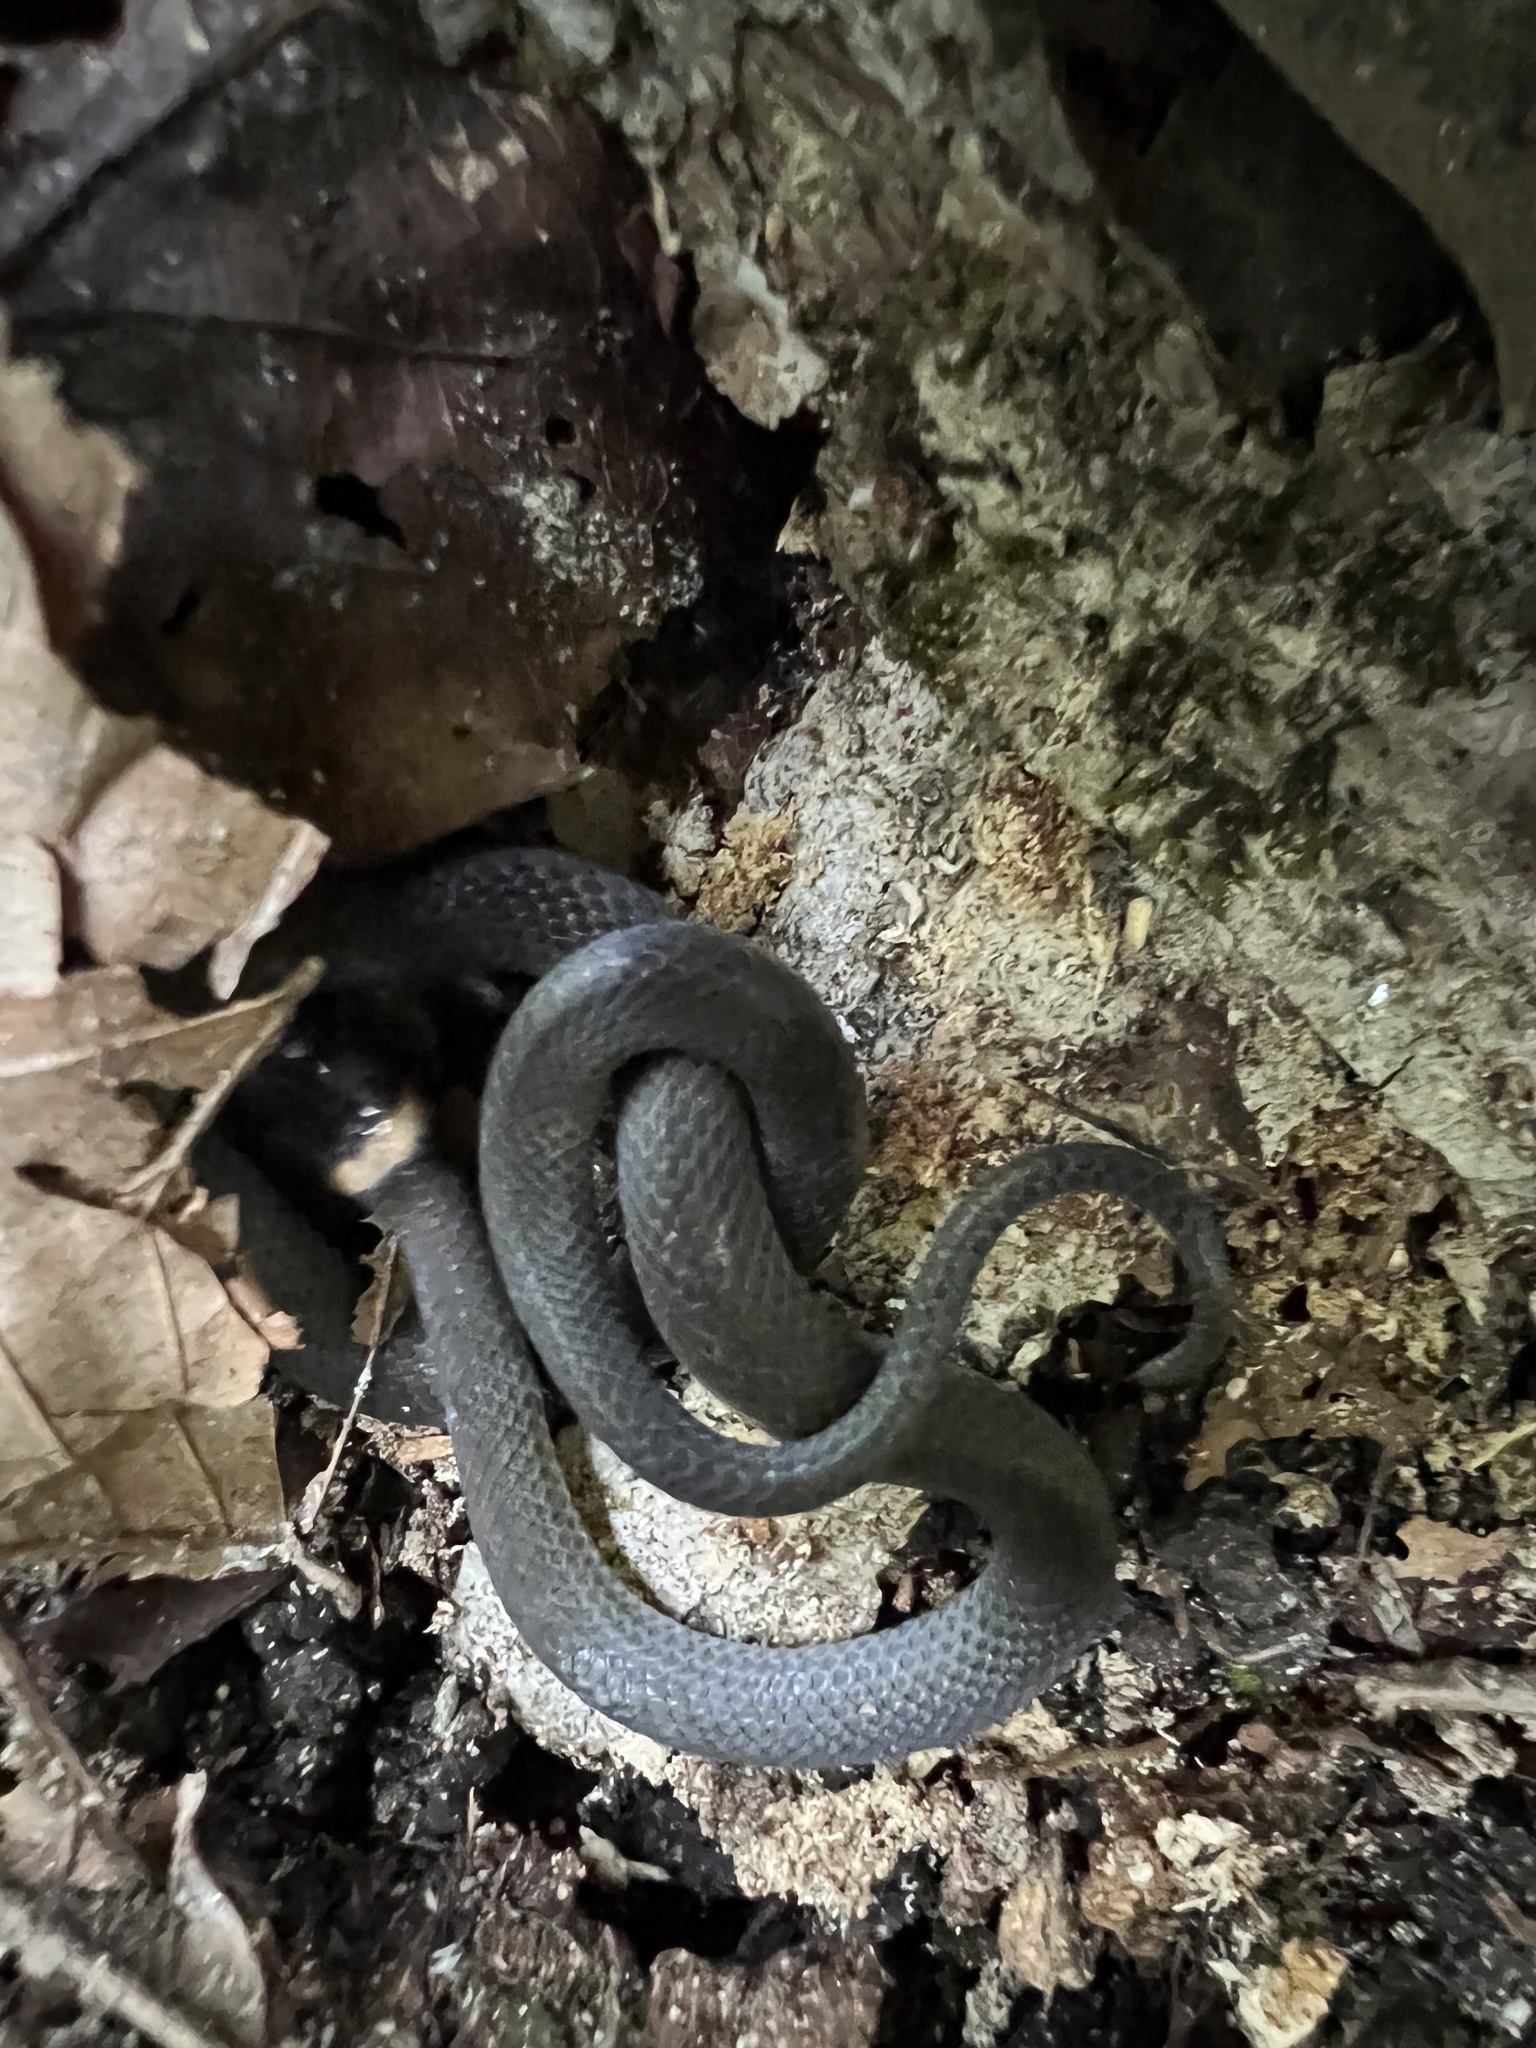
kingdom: Animalia
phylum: Chordata
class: Squamata
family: Colubridae
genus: Diadophis
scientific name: Diadophis punctatus
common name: Ringneck snake
